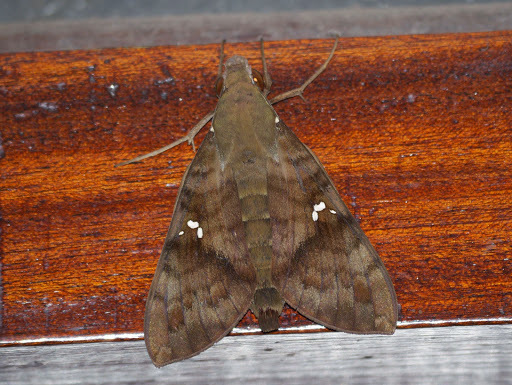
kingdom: Animalia
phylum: Arthropoda
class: Insecta
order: Lepidoptera
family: Sphingidae
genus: Nephele
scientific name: Nephele peneus
